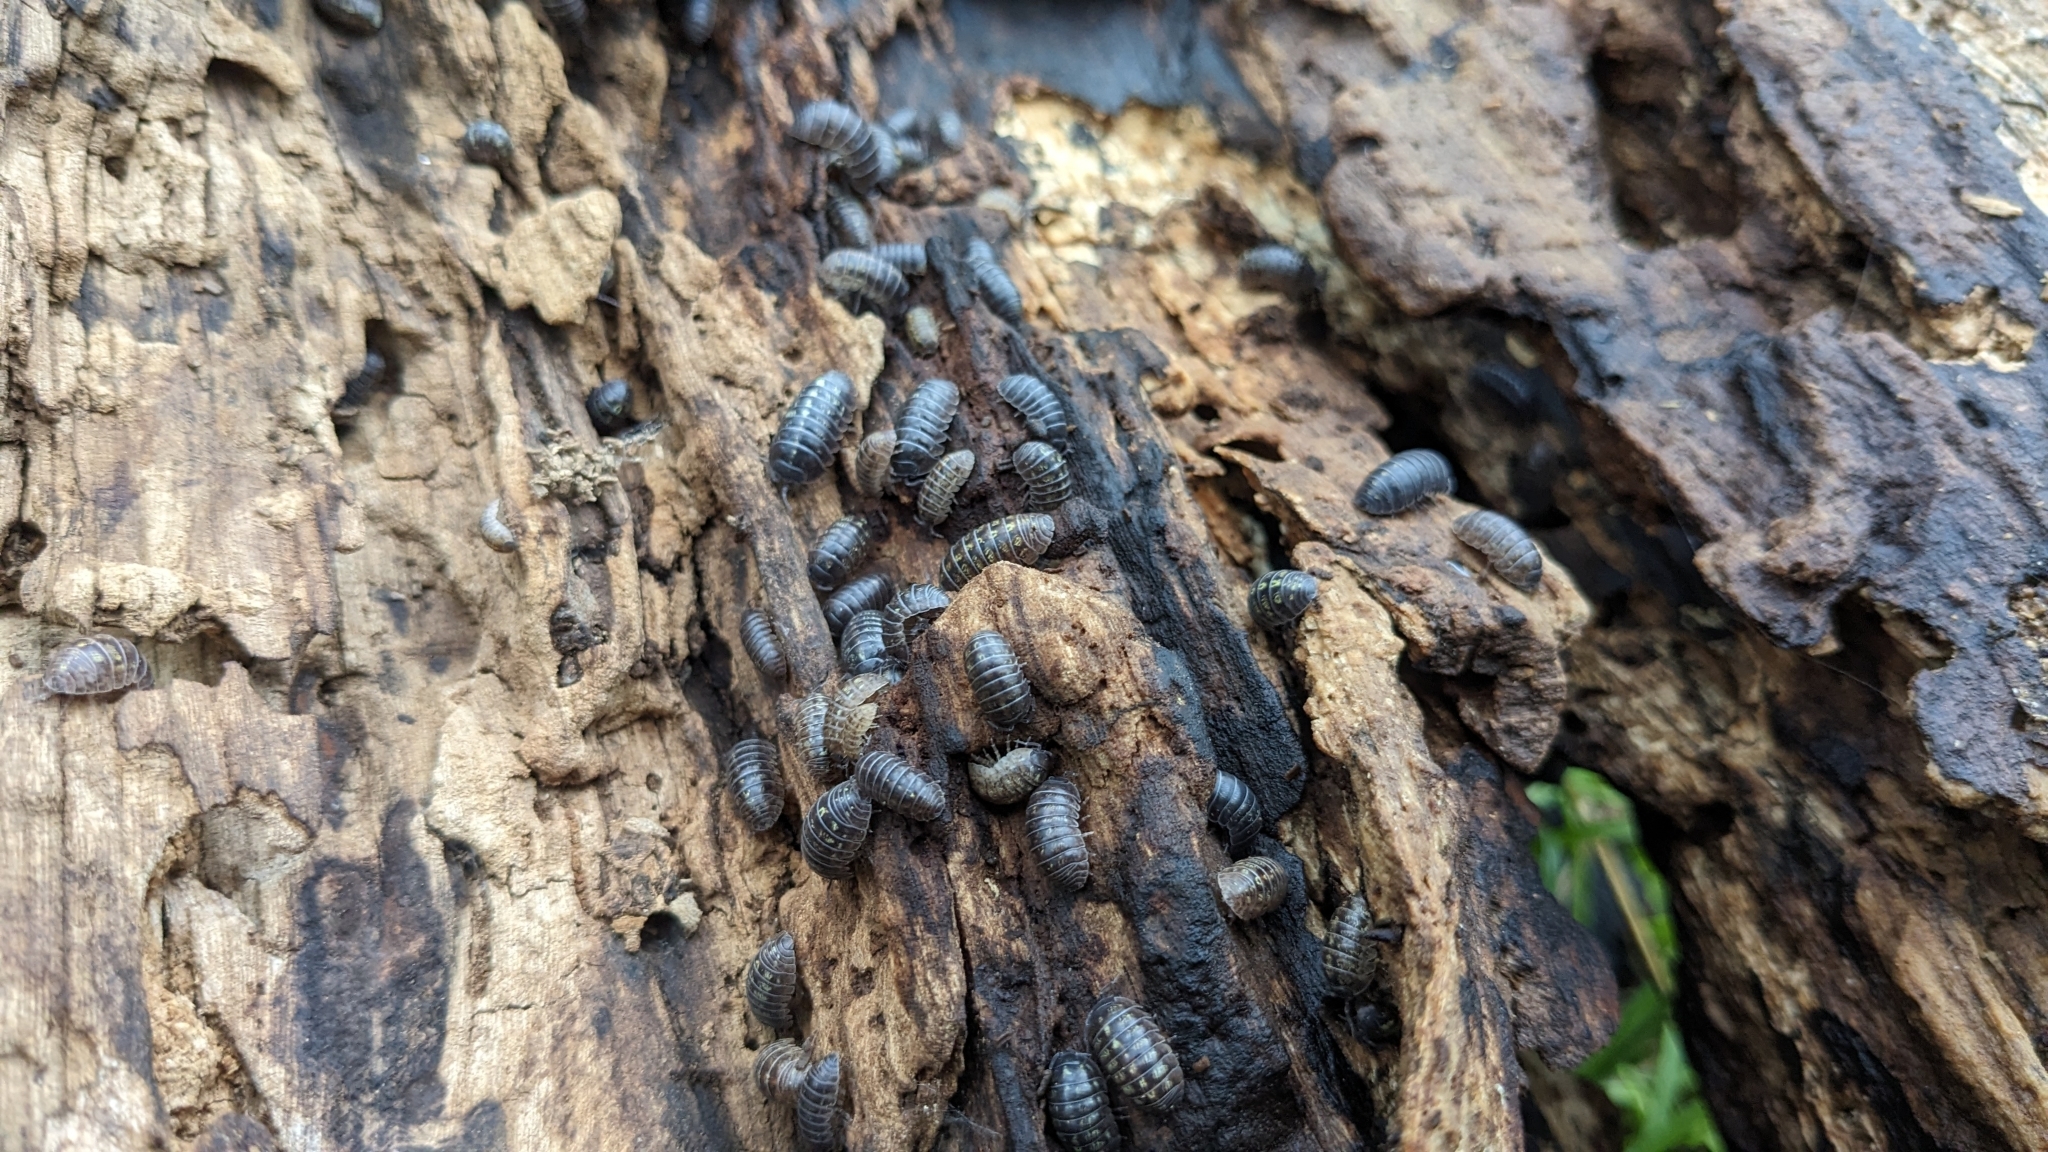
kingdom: Animalia
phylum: Arthropoda
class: Malacostraca
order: Isopoda
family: Armadillidiidae
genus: Armadillidium
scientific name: Armadillidium vulgare
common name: Common pill woodlouse
